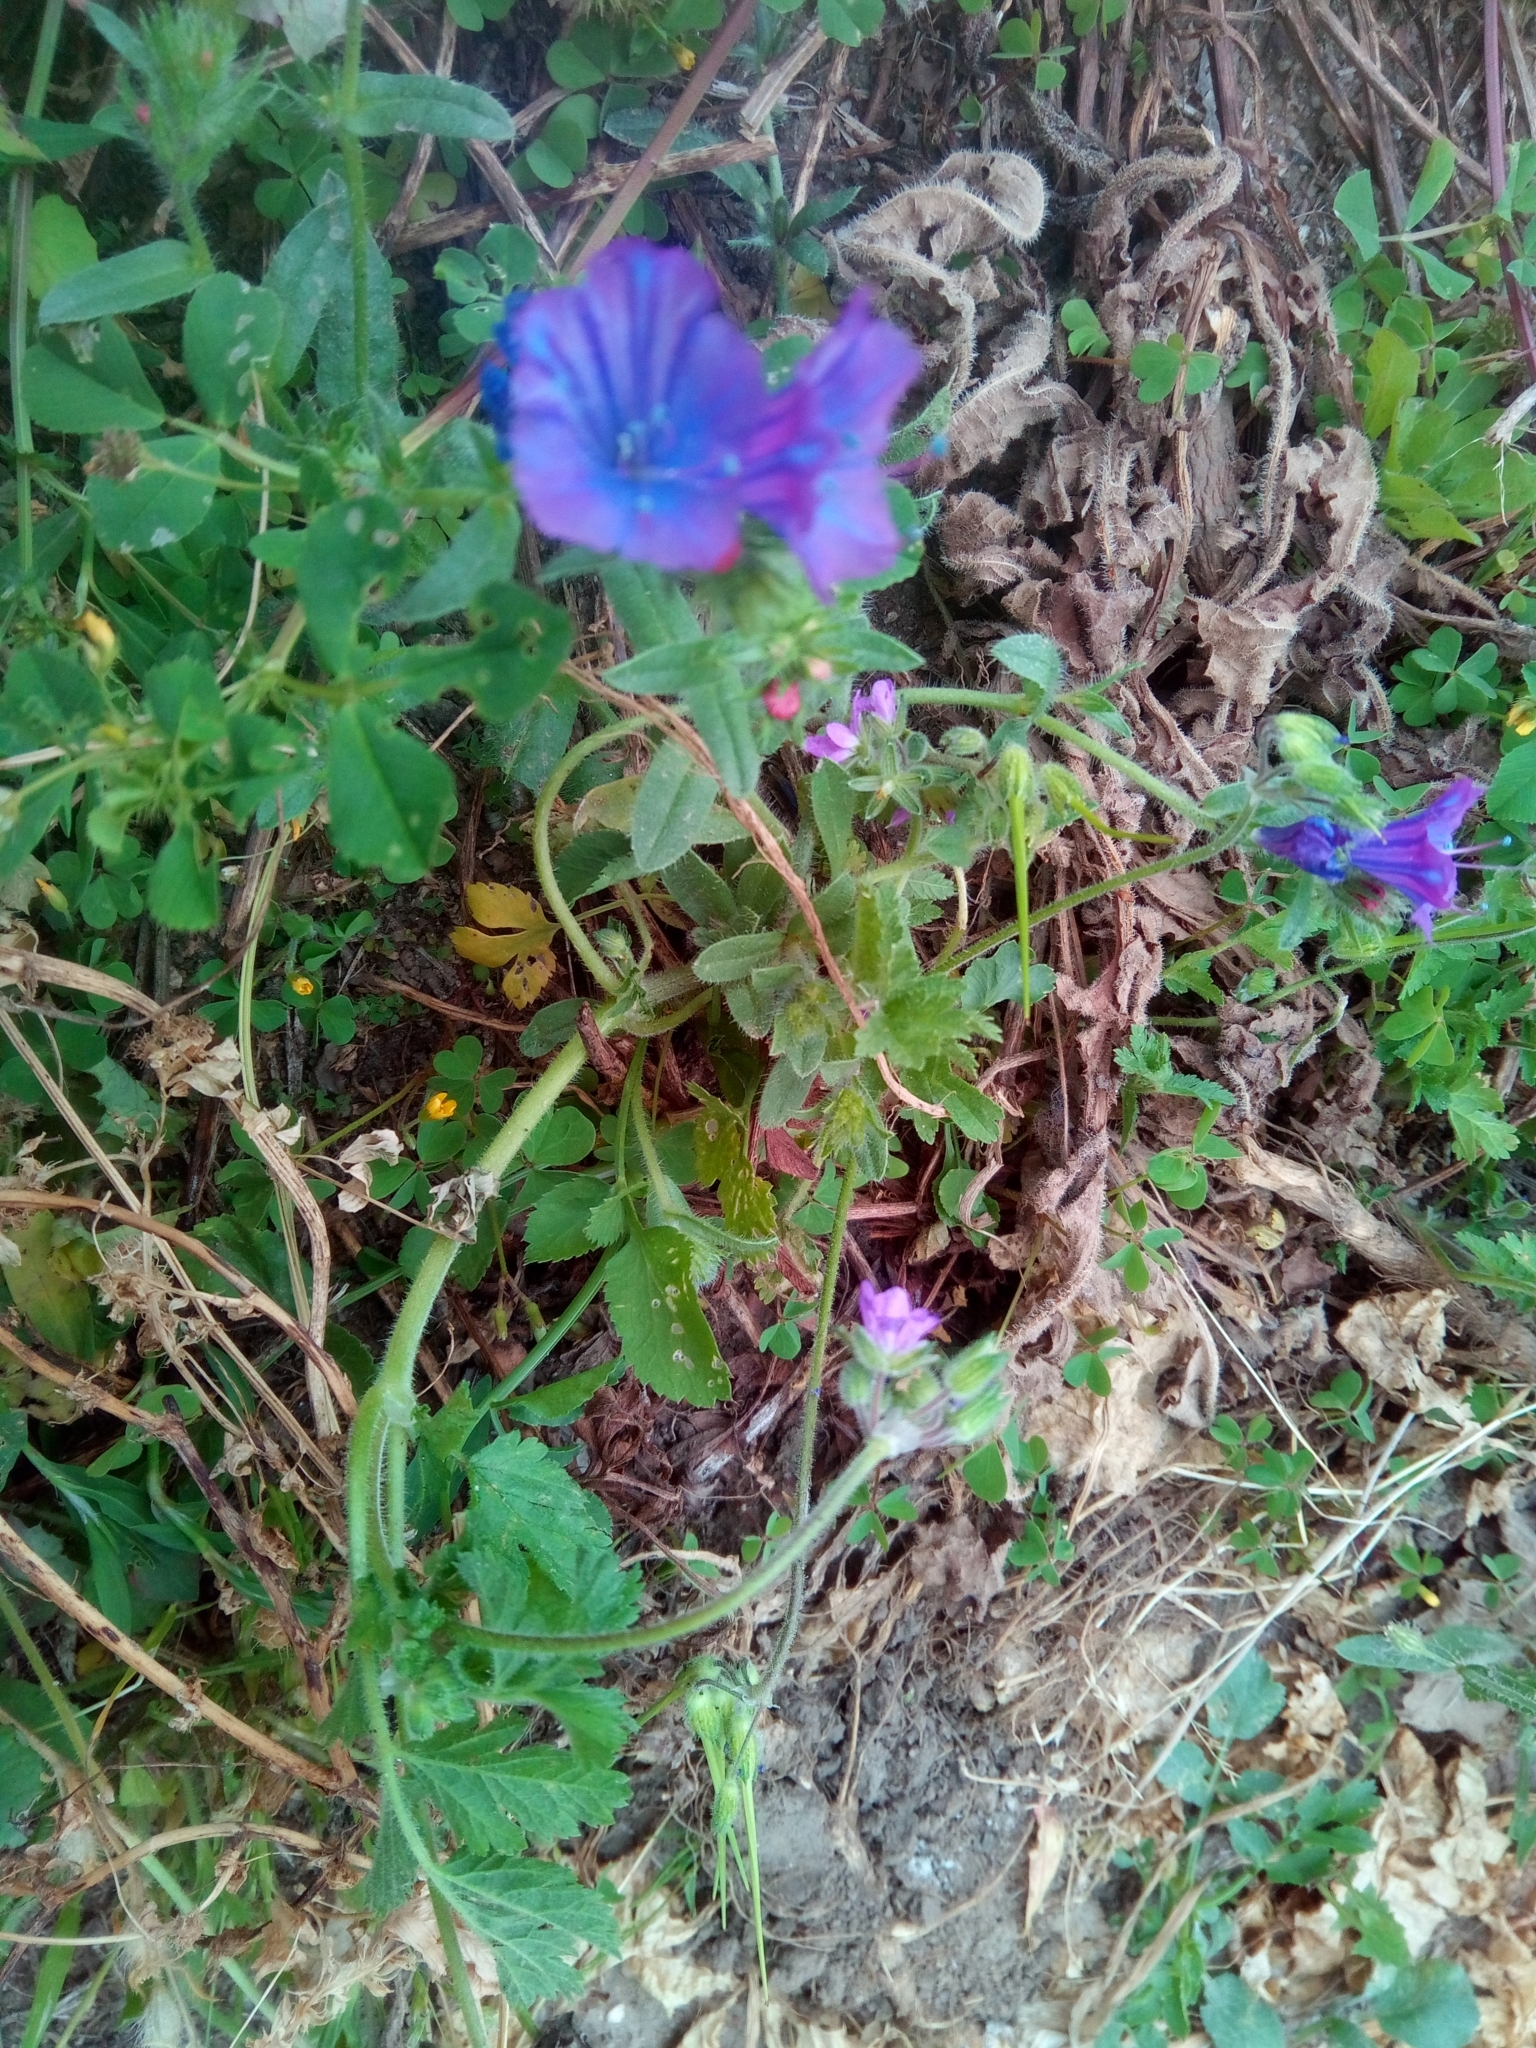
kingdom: Plantae
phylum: Tracheophyta
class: Magnoliopsida
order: Boraginales
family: Boraginaceae
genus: Echium
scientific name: Echium plantagineum
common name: Purple viper's-bugloss
